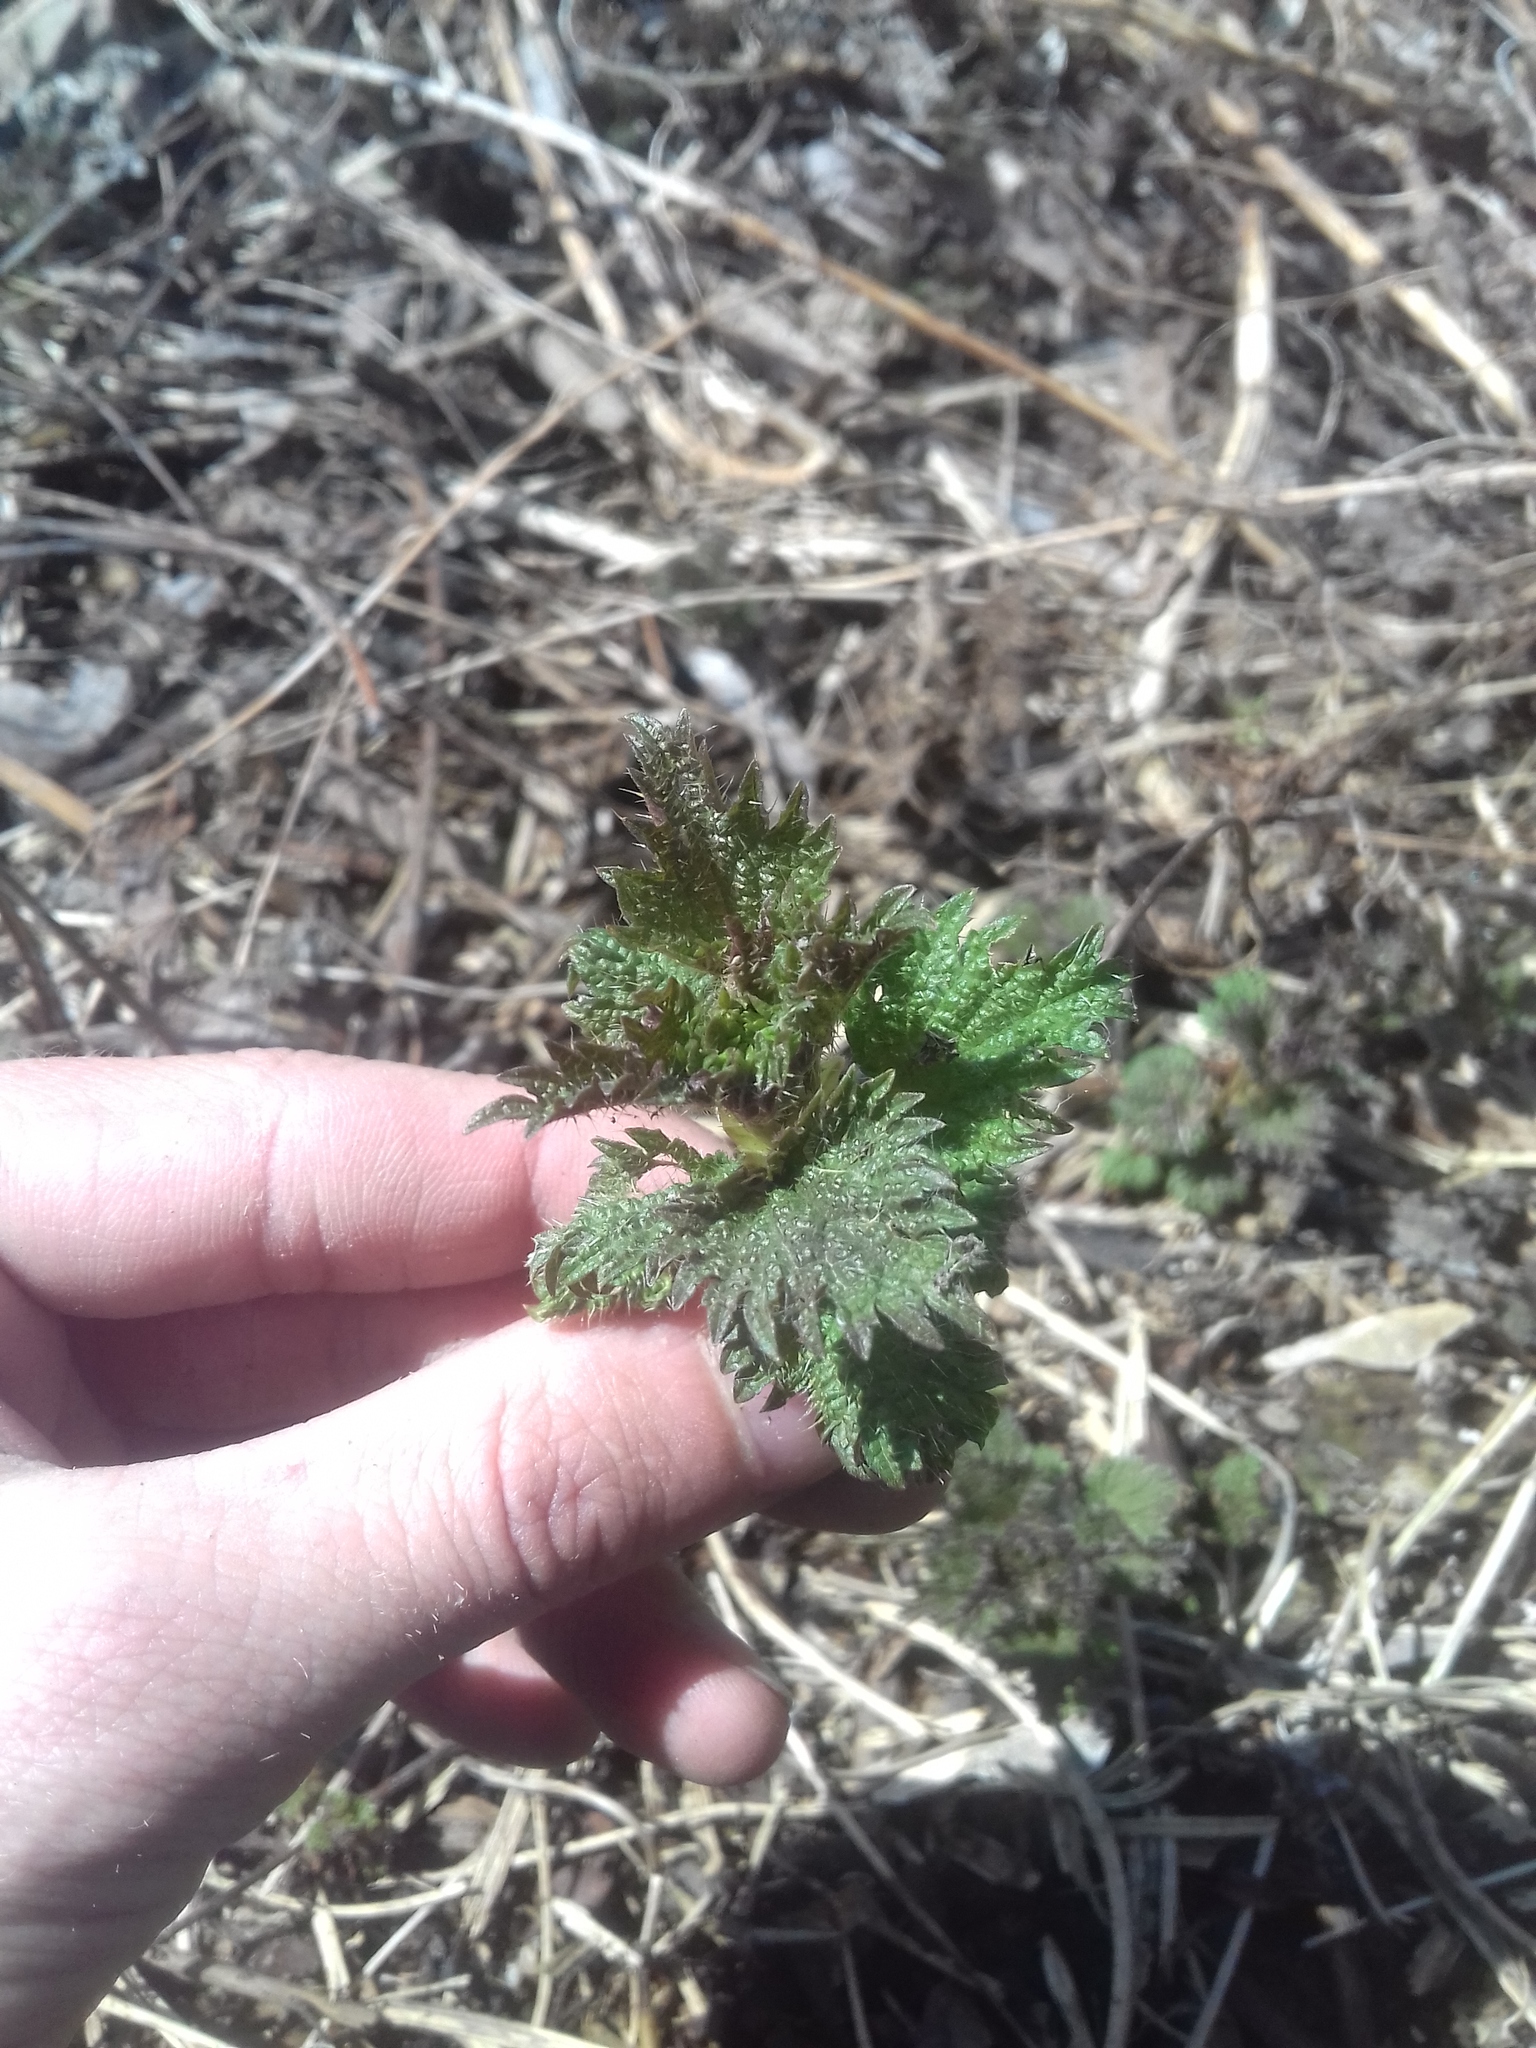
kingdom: Plantae
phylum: Tracheophyta
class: Magnoliopsida
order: Rosales
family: Urticaceae
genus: Urtica
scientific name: Urtica dioica
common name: Common nettle
